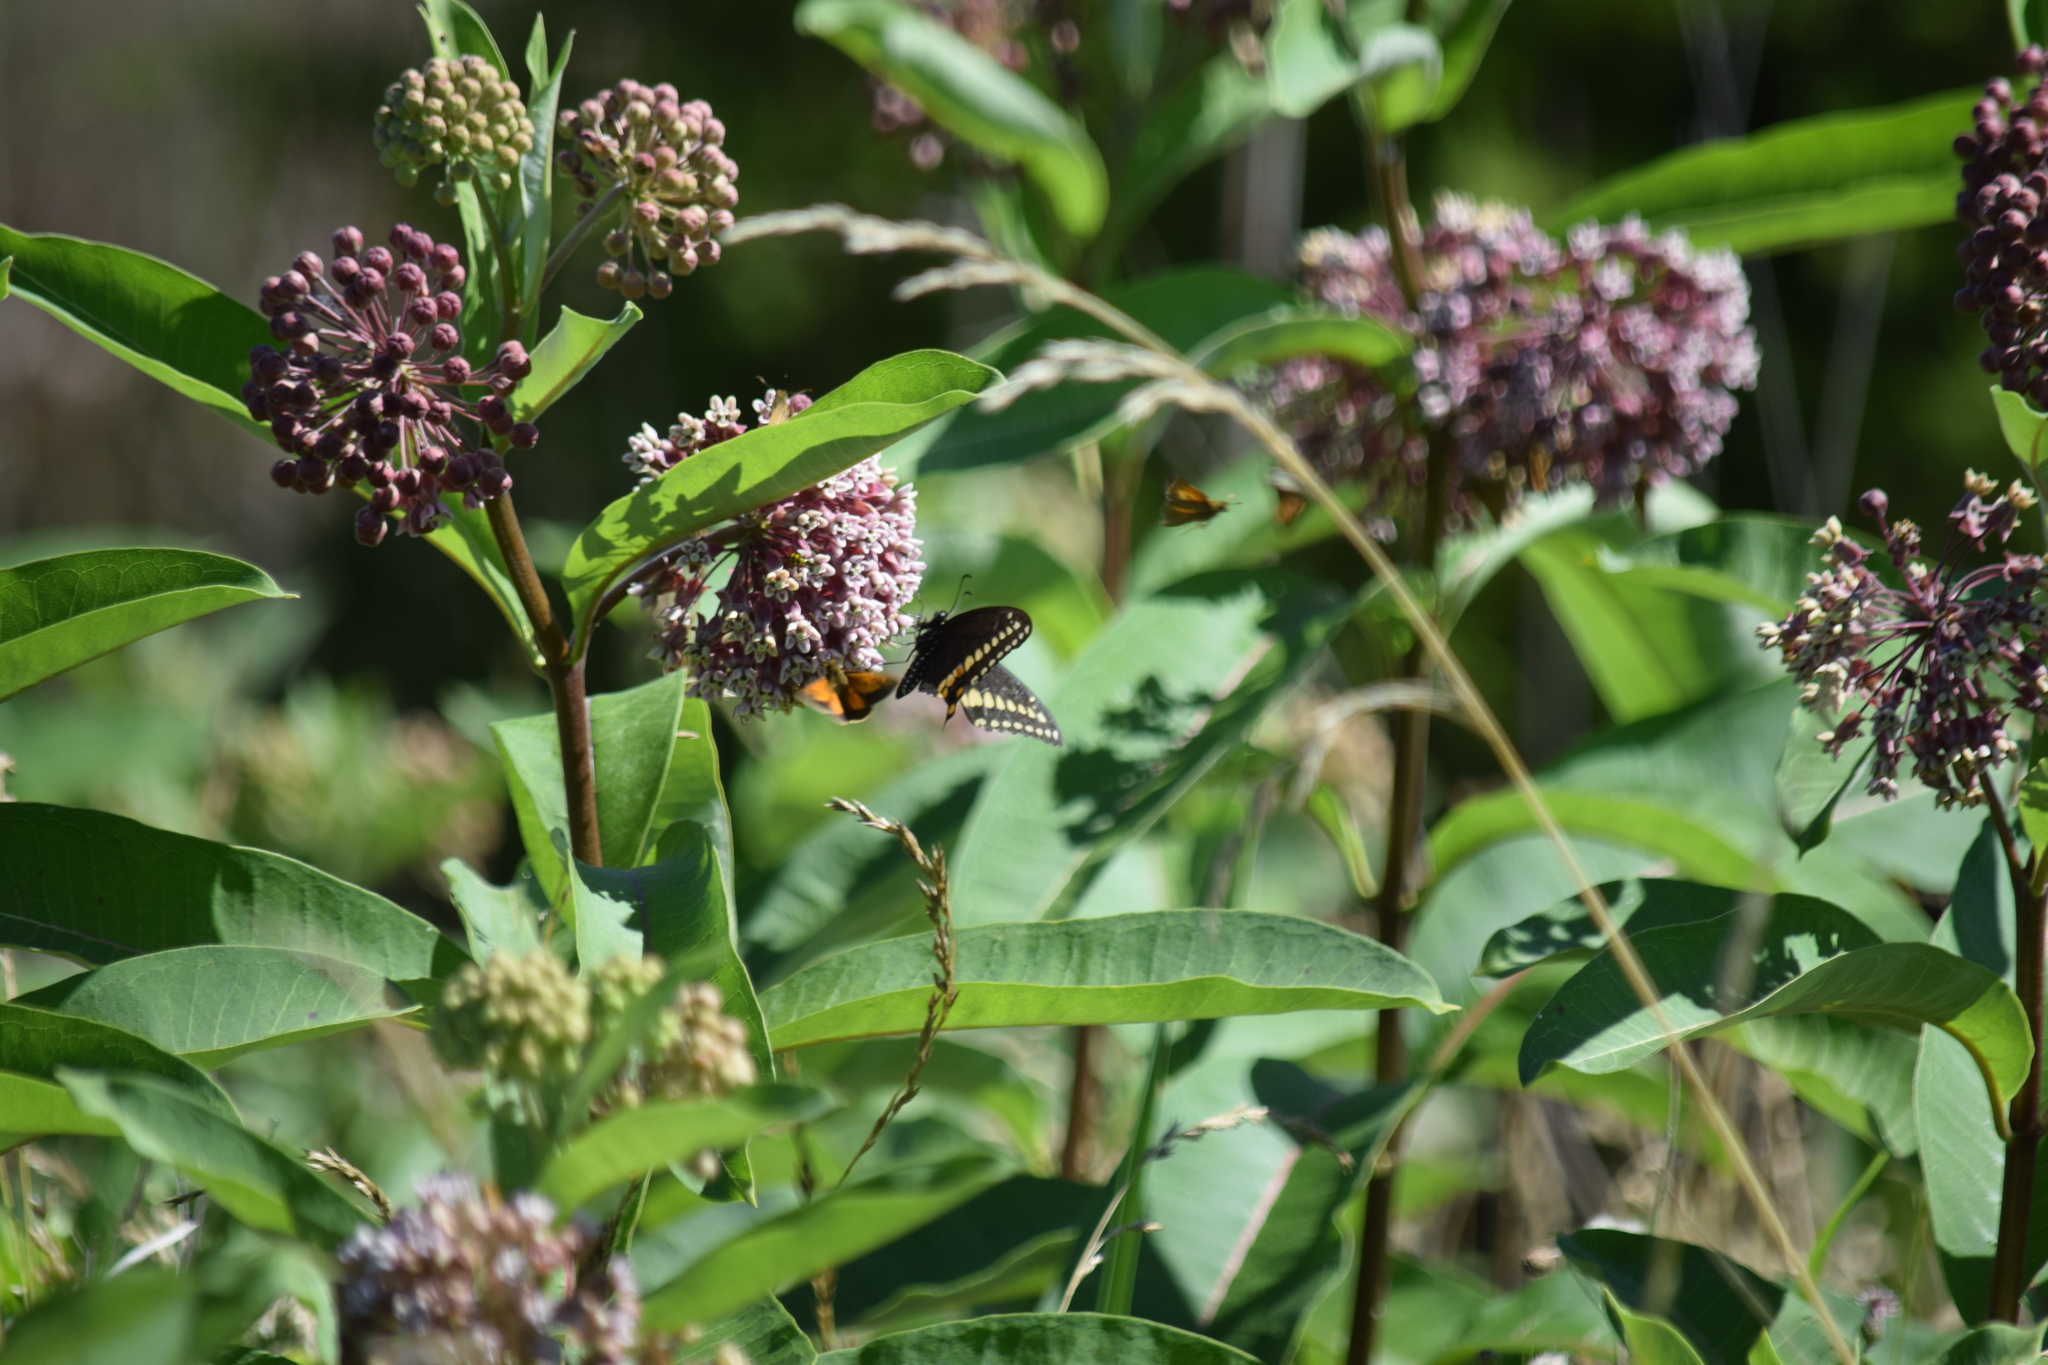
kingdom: Animalia
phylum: Arthropoda
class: Insecta
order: Lepidoptera
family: Papilionidae
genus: Papilio
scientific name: Papilio polyxenes
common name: Black swallowtail
